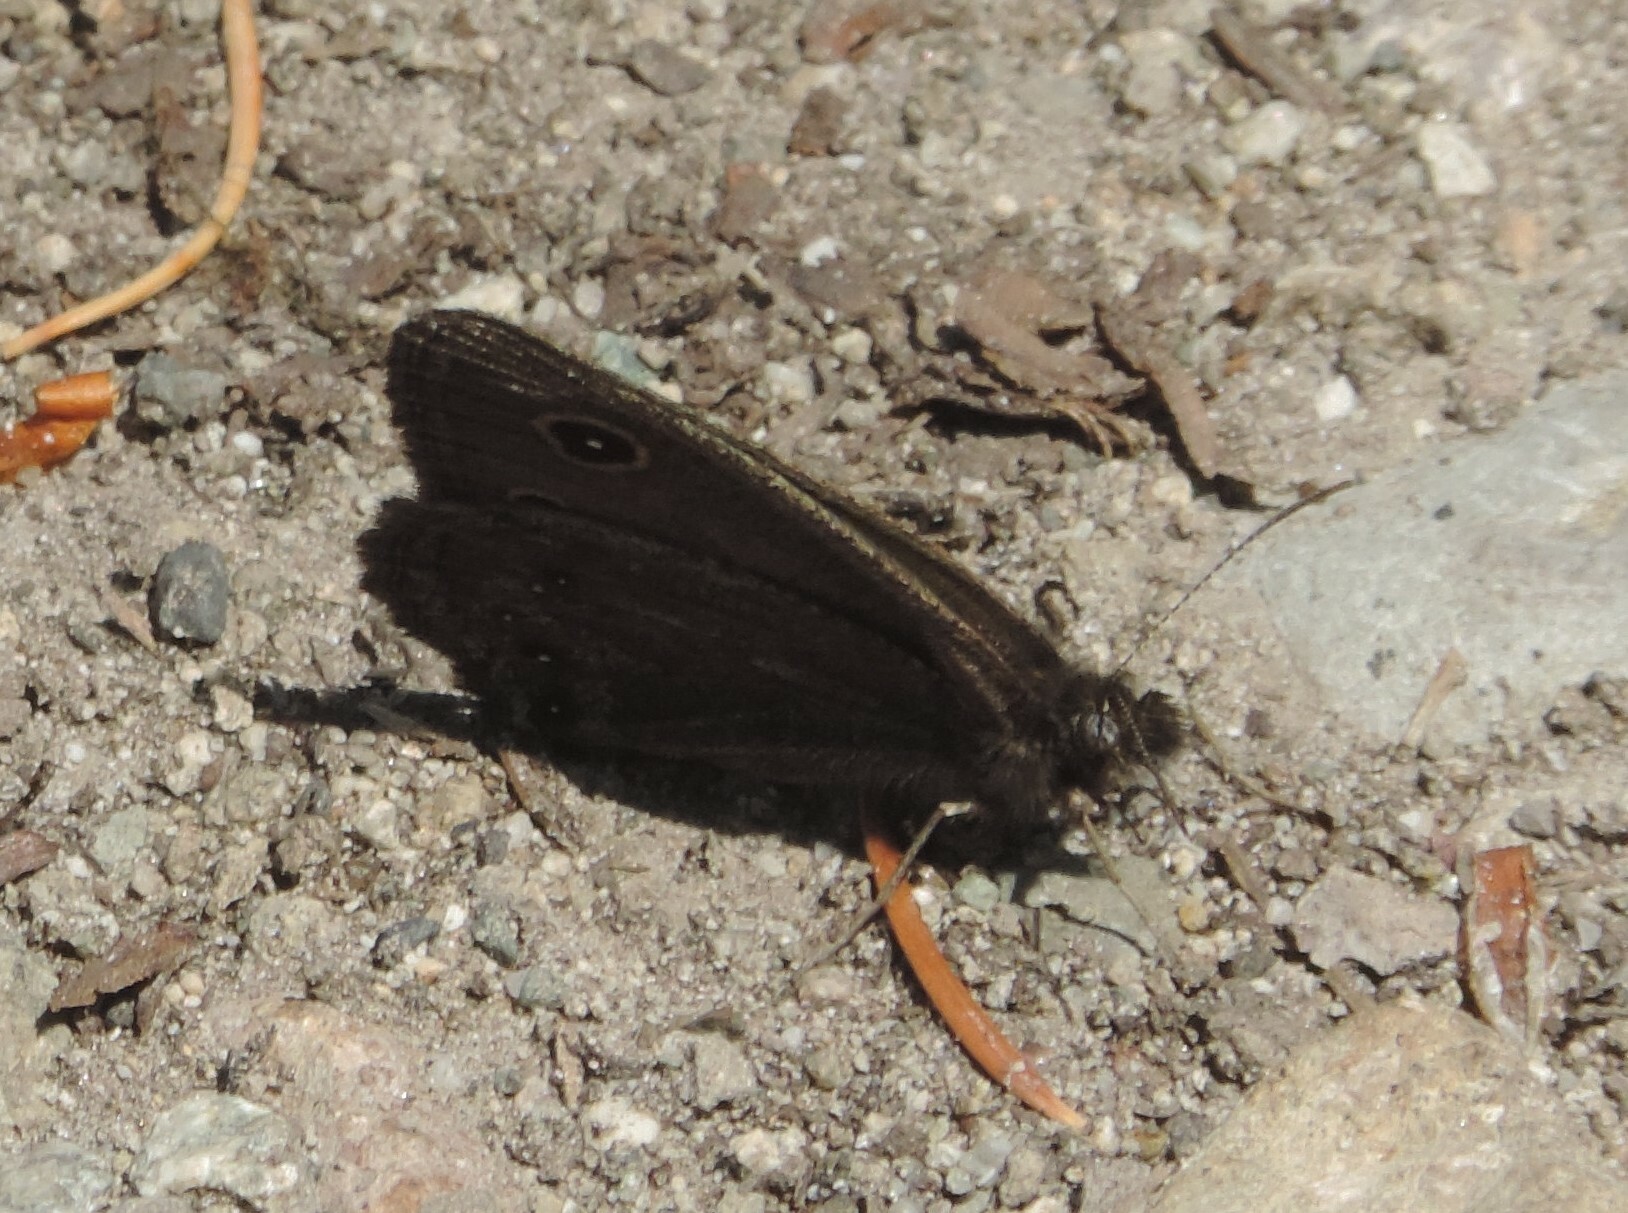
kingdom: Animalia
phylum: Arthropoda
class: Insecta
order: Lepidoptera
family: Nymphalidae
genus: Cercyonis
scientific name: Cercyonis oetus
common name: Small wood-nymph
